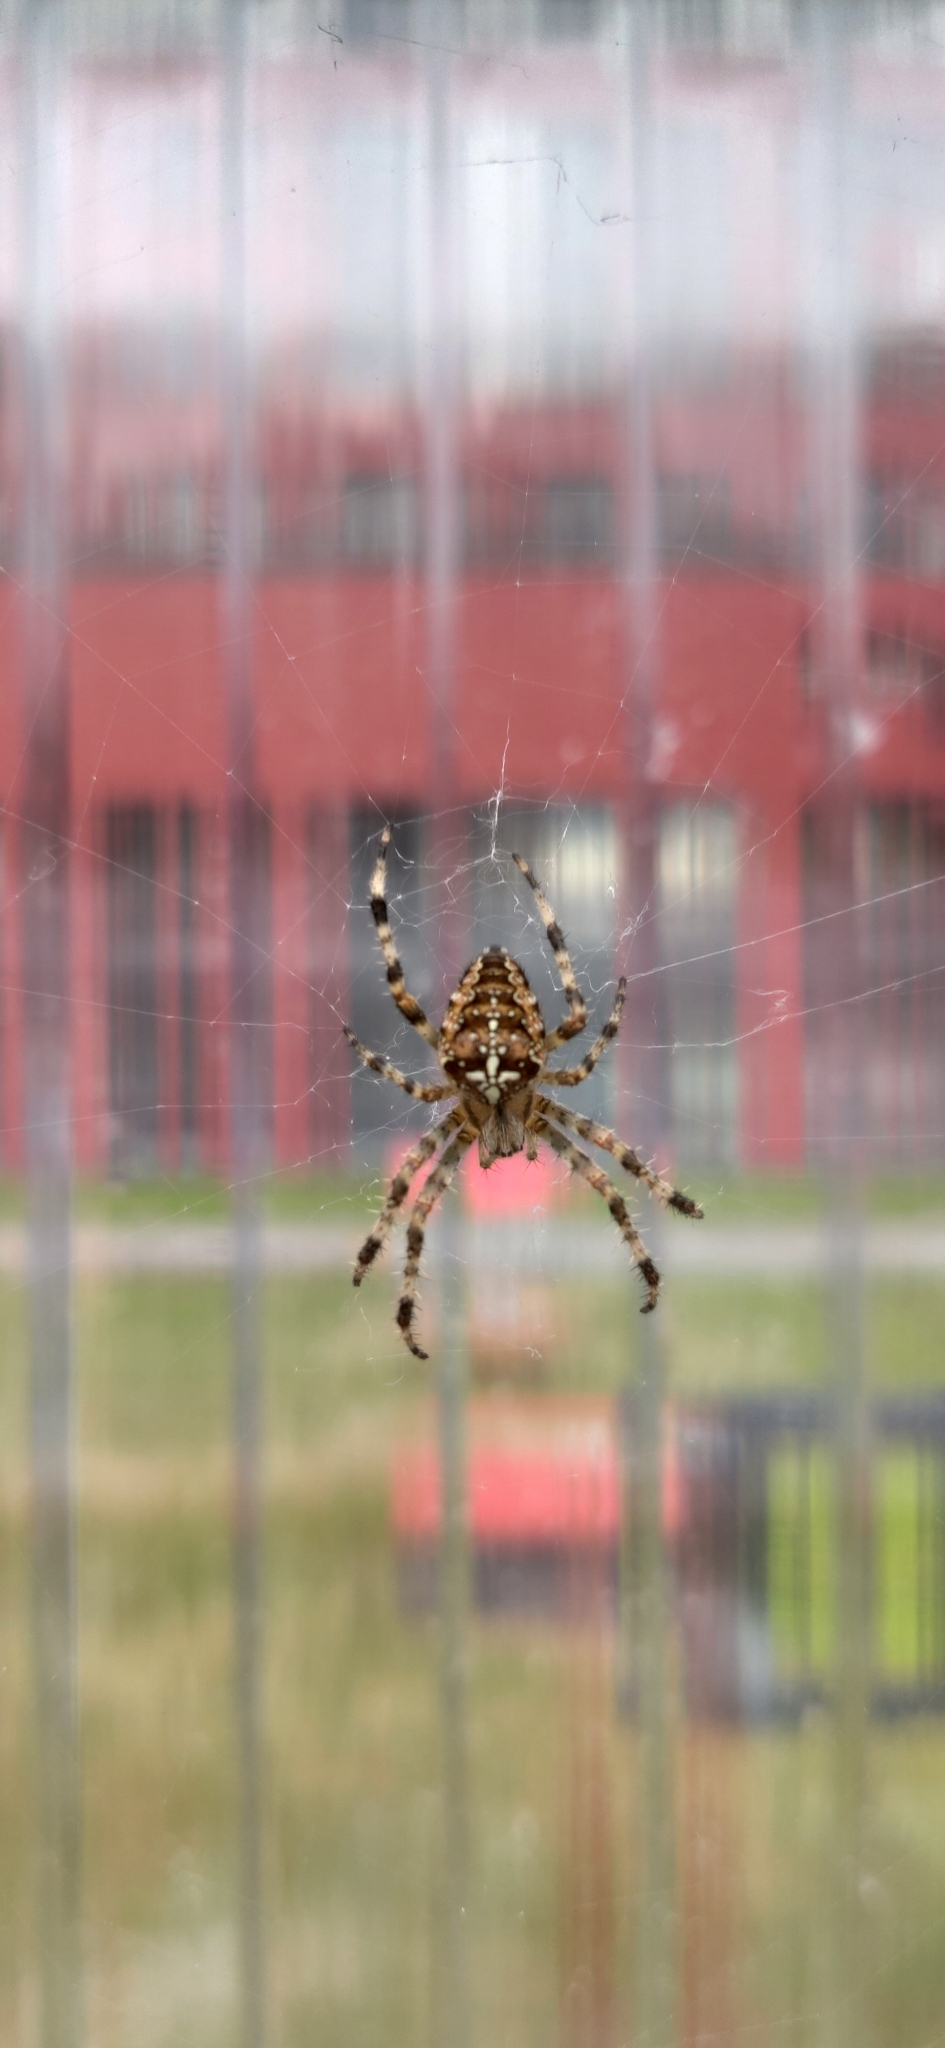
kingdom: Animalia
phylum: Arthropoda
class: Arachnida
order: Araneae
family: Araneidae
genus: Araneus
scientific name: Araneus diadematus
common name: Cross orbweaver
